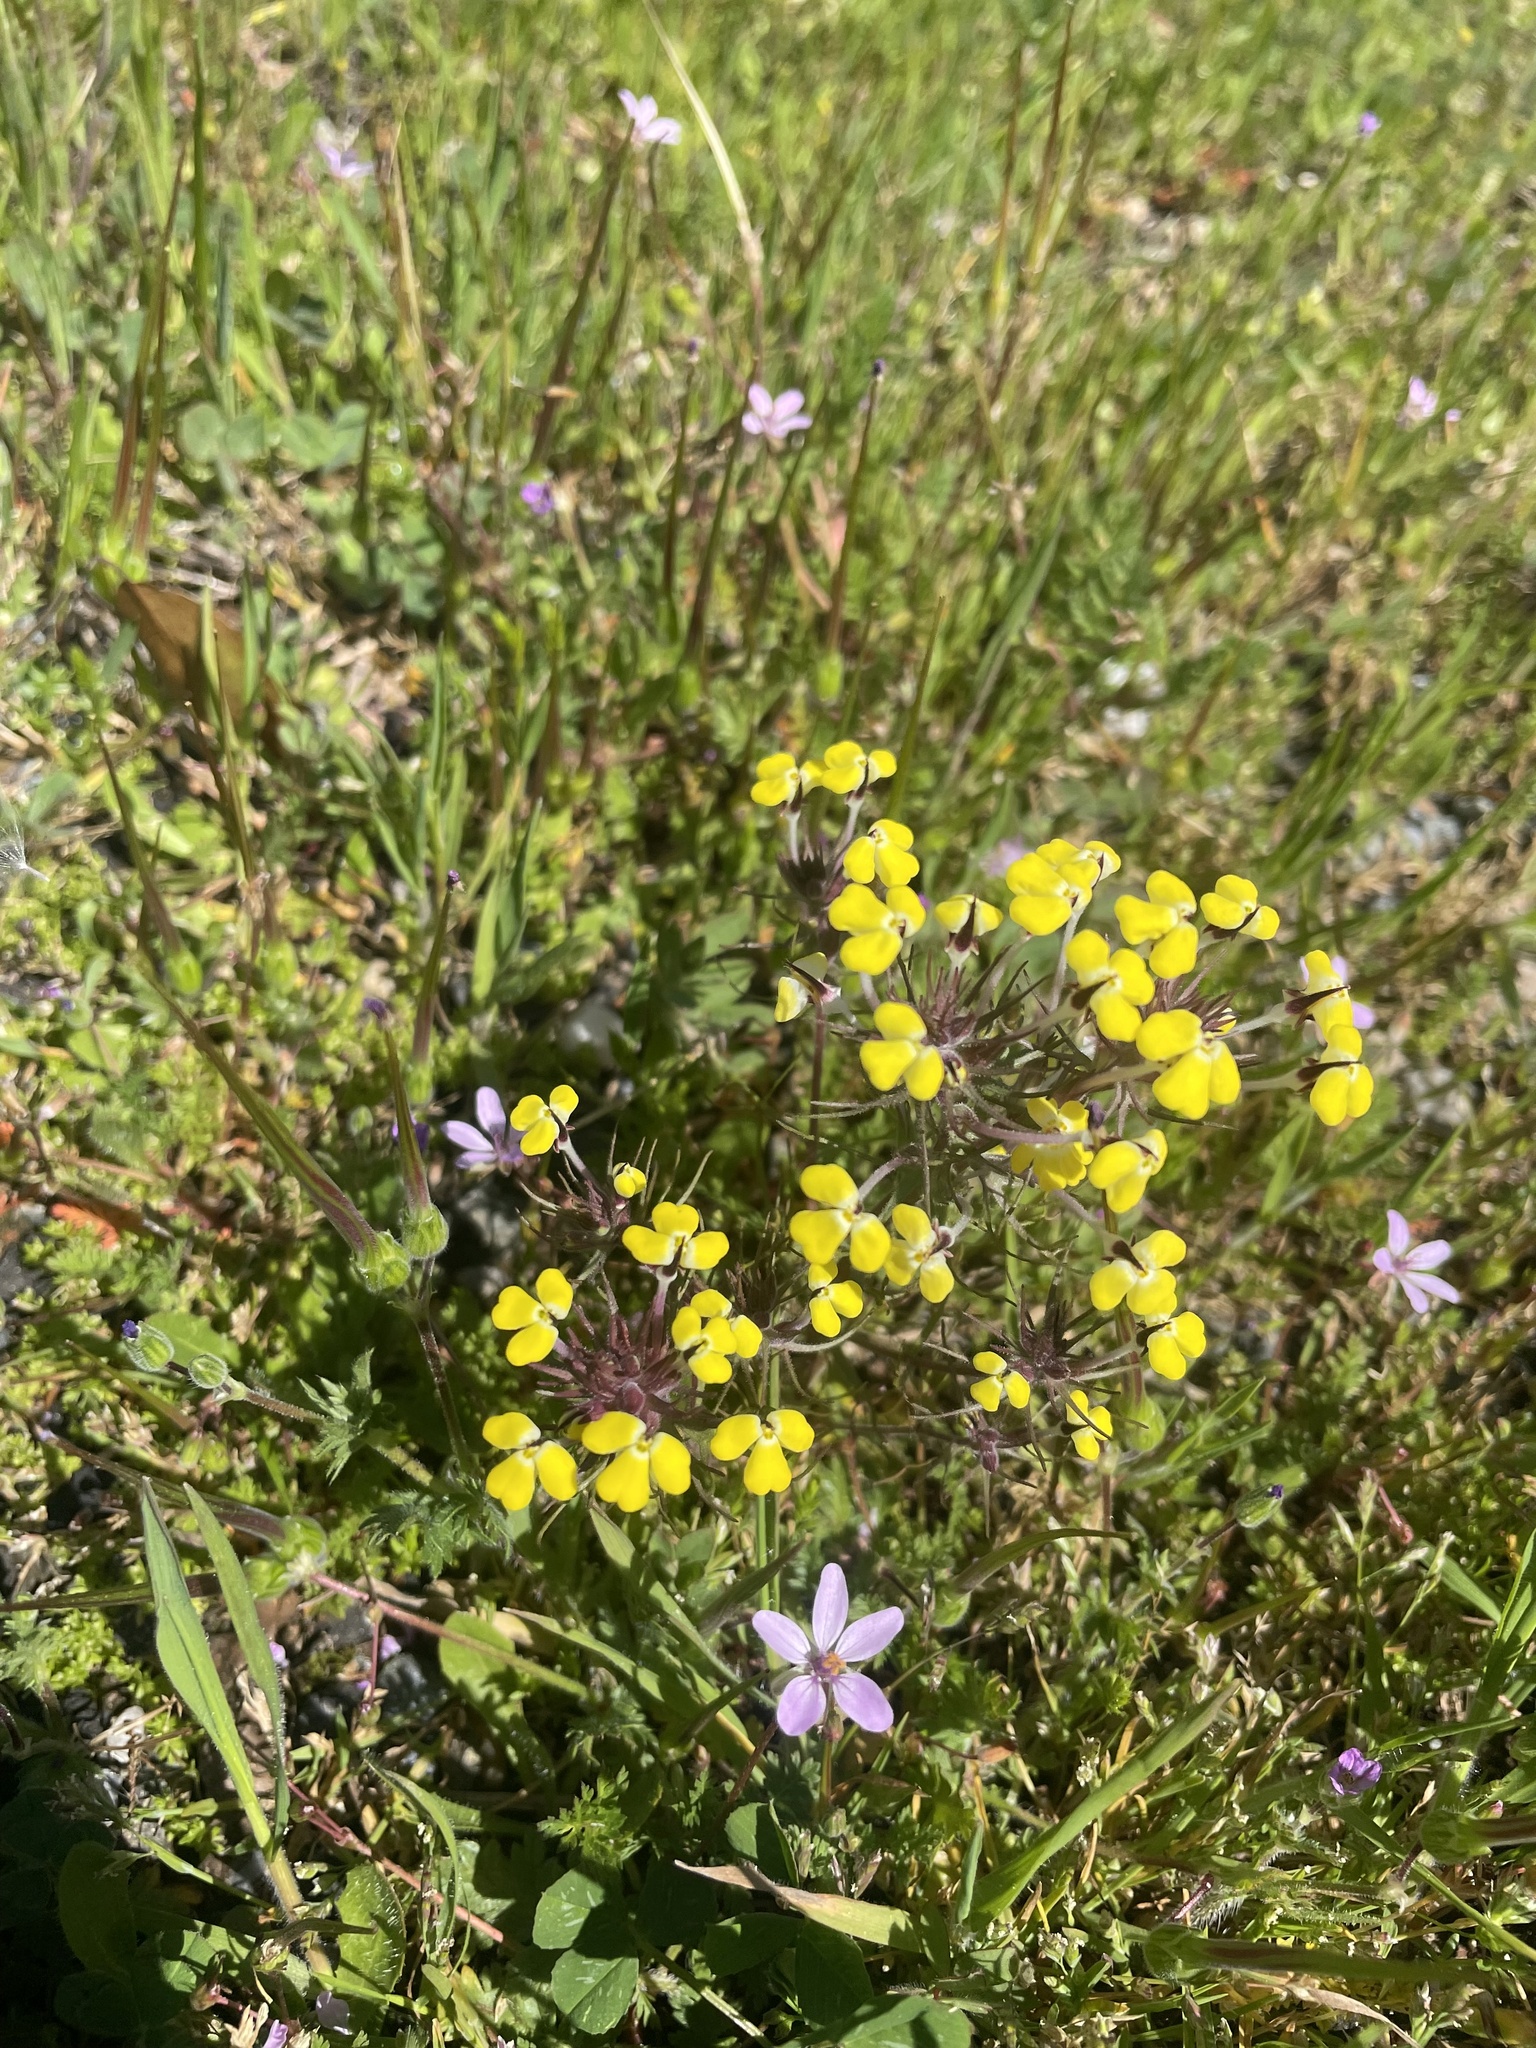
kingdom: Plantae
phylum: Tracheophyta
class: Magnoliopsida
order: Lamiales
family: Orobanchaceae
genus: Triphysaria
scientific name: Triphysaria eriantha
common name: Johnny-tuck
